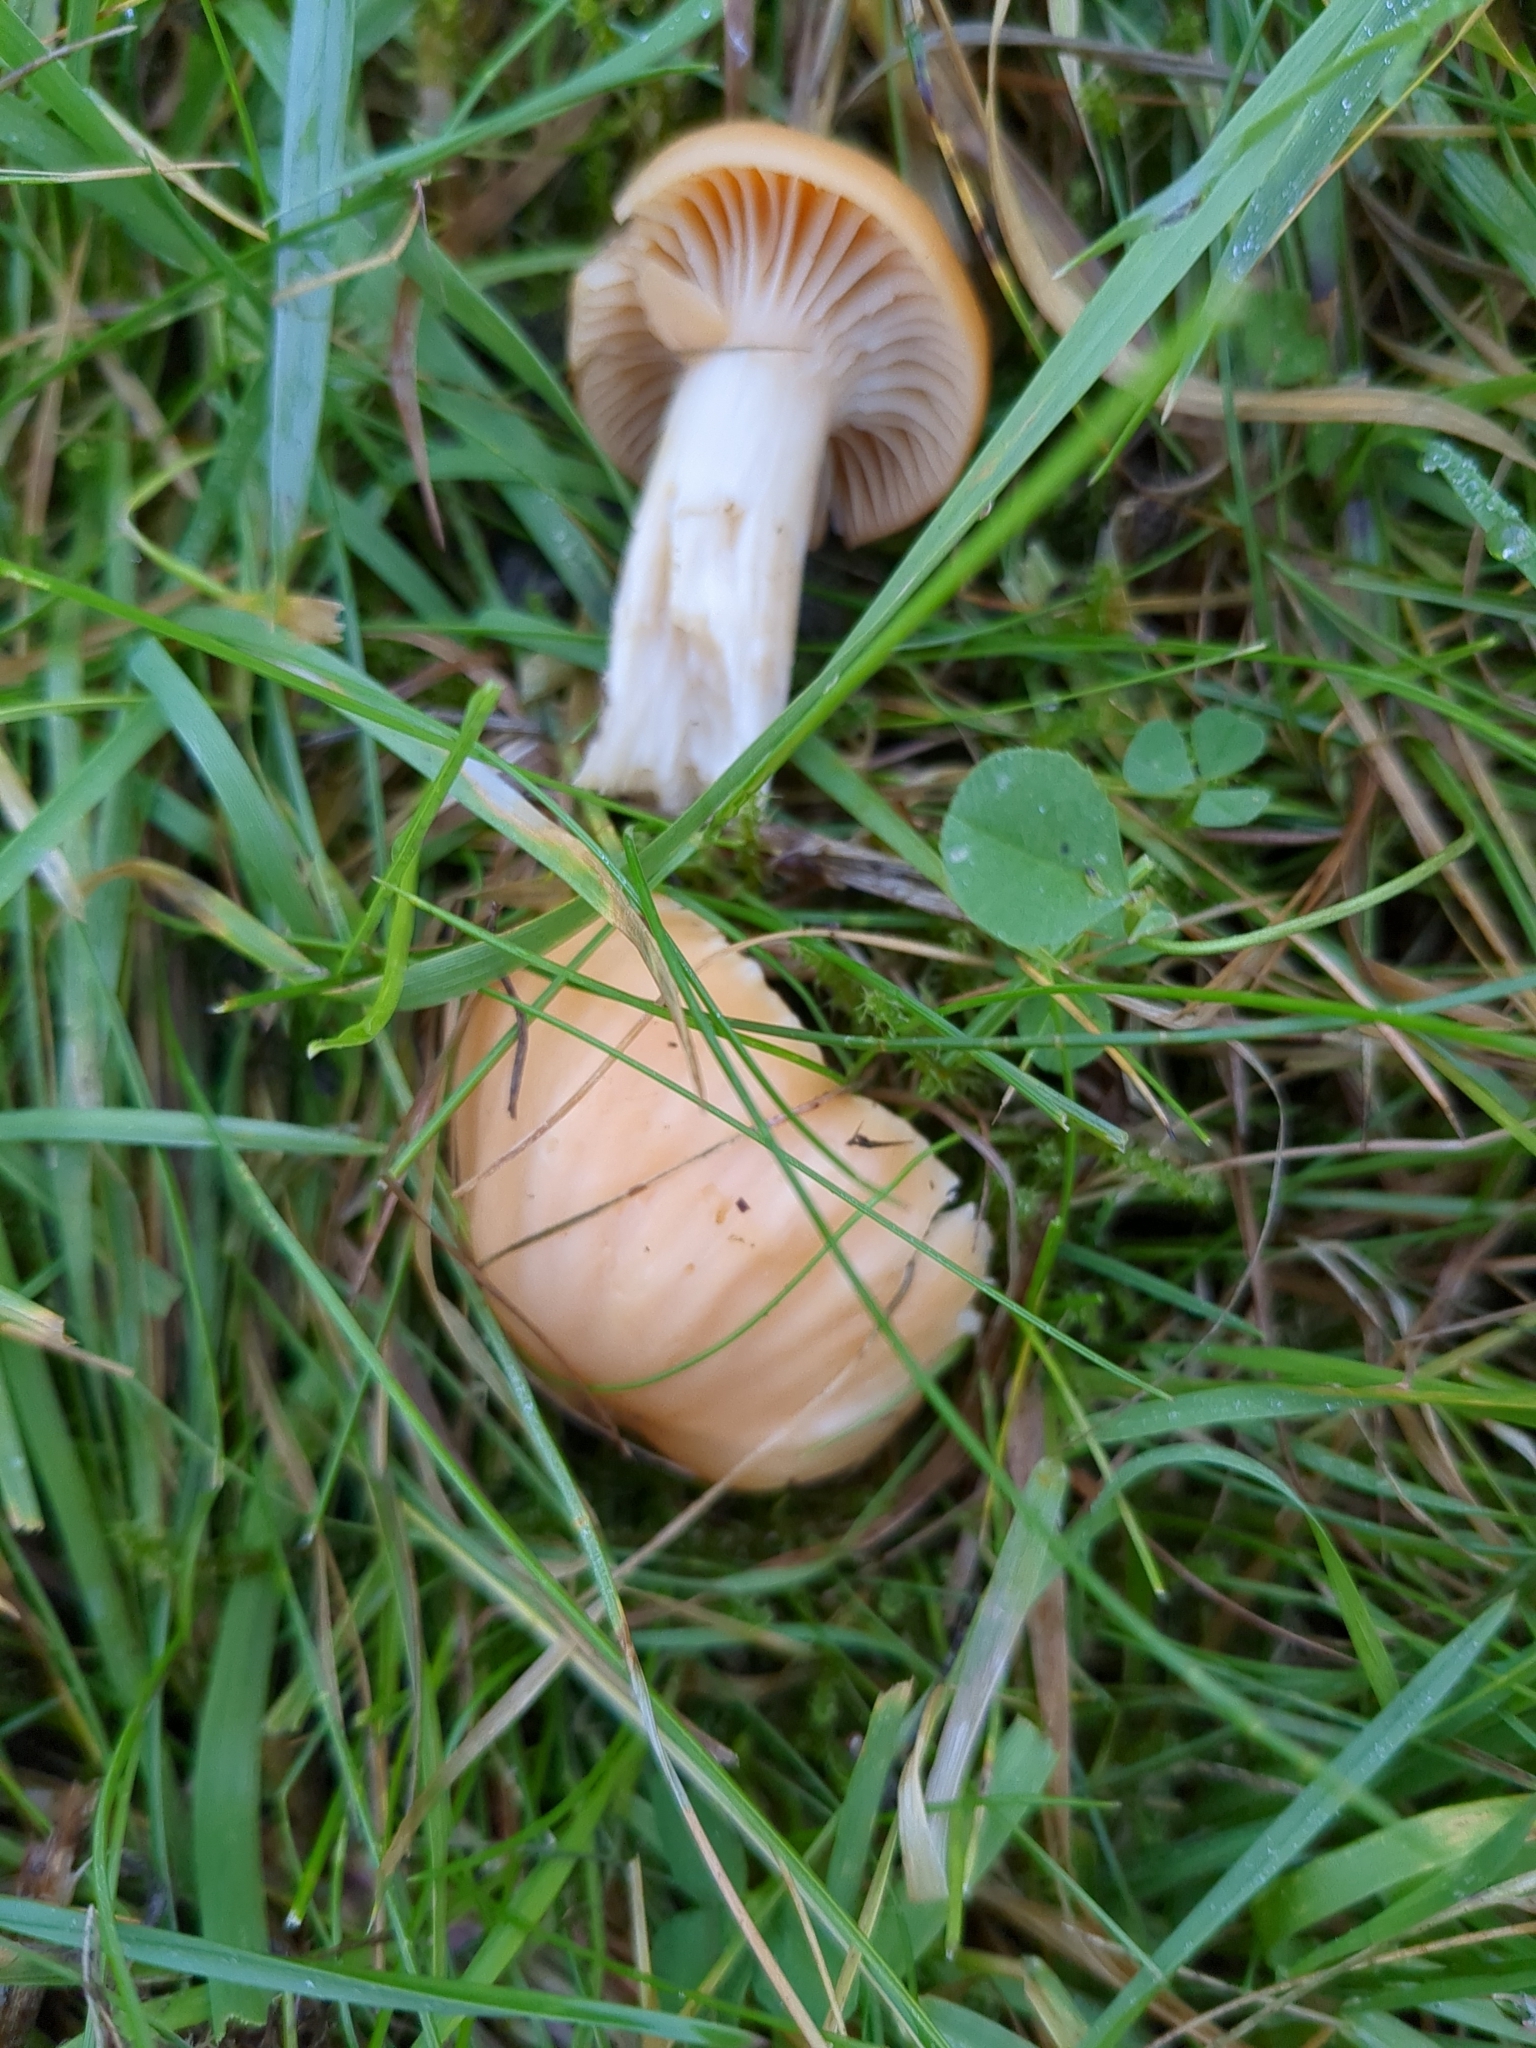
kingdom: Fungi
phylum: Basidiomycota
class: Agaricomycetes
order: Agaricales
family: Hygrophoraceae
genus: Cuphophyllus
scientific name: Cuphophyllus pratensis
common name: Meadow waxcap
